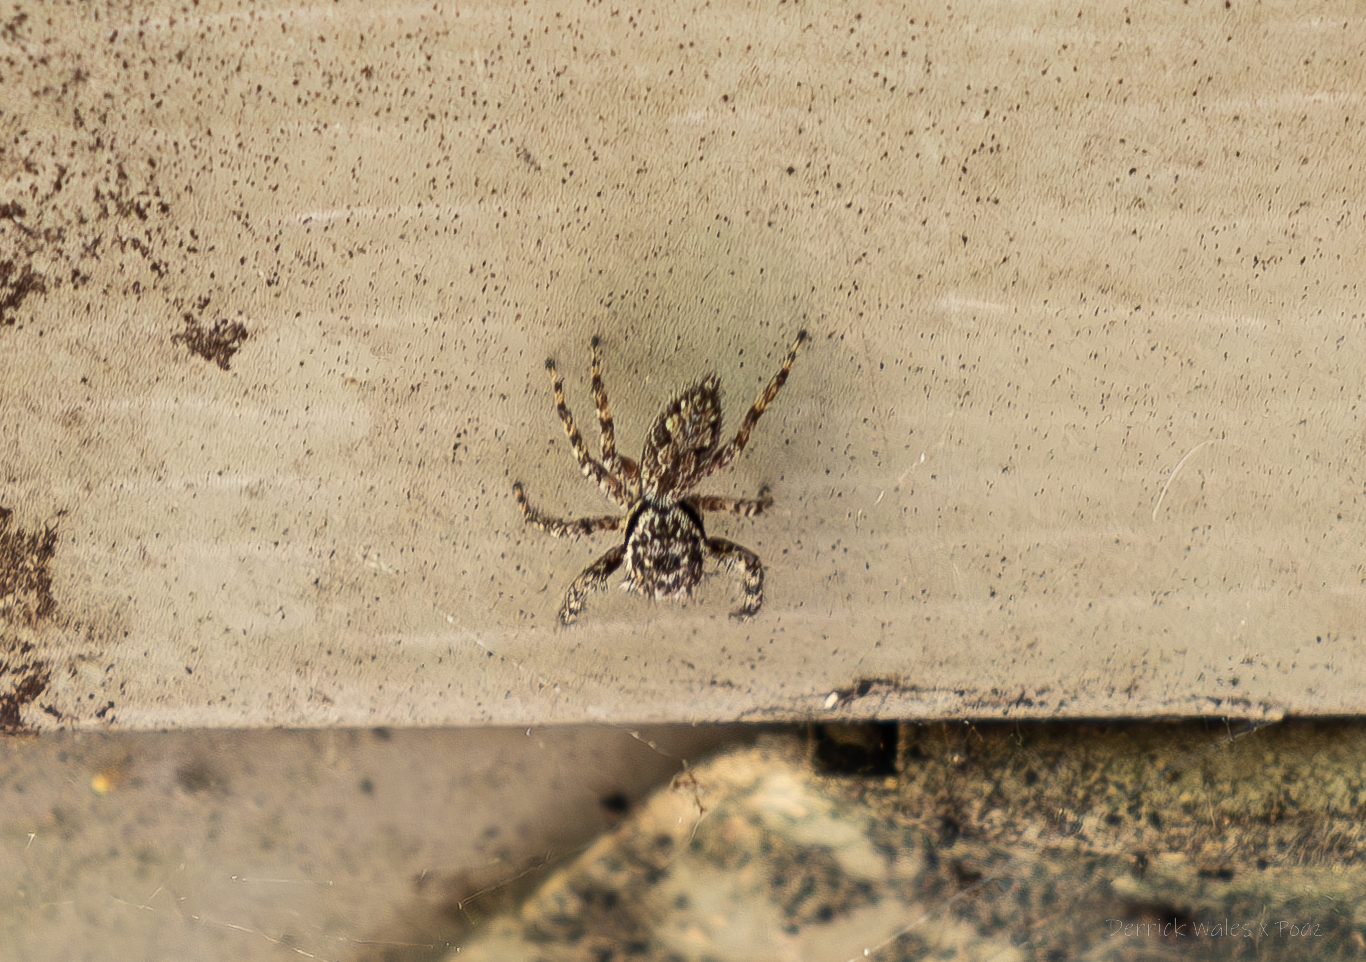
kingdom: Animalia
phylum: Arthropoda
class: Arachnida
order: Araneae
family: Salticidae
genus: Platycryptus
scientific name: Platycryptus undatus
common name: Tan jumping spider
